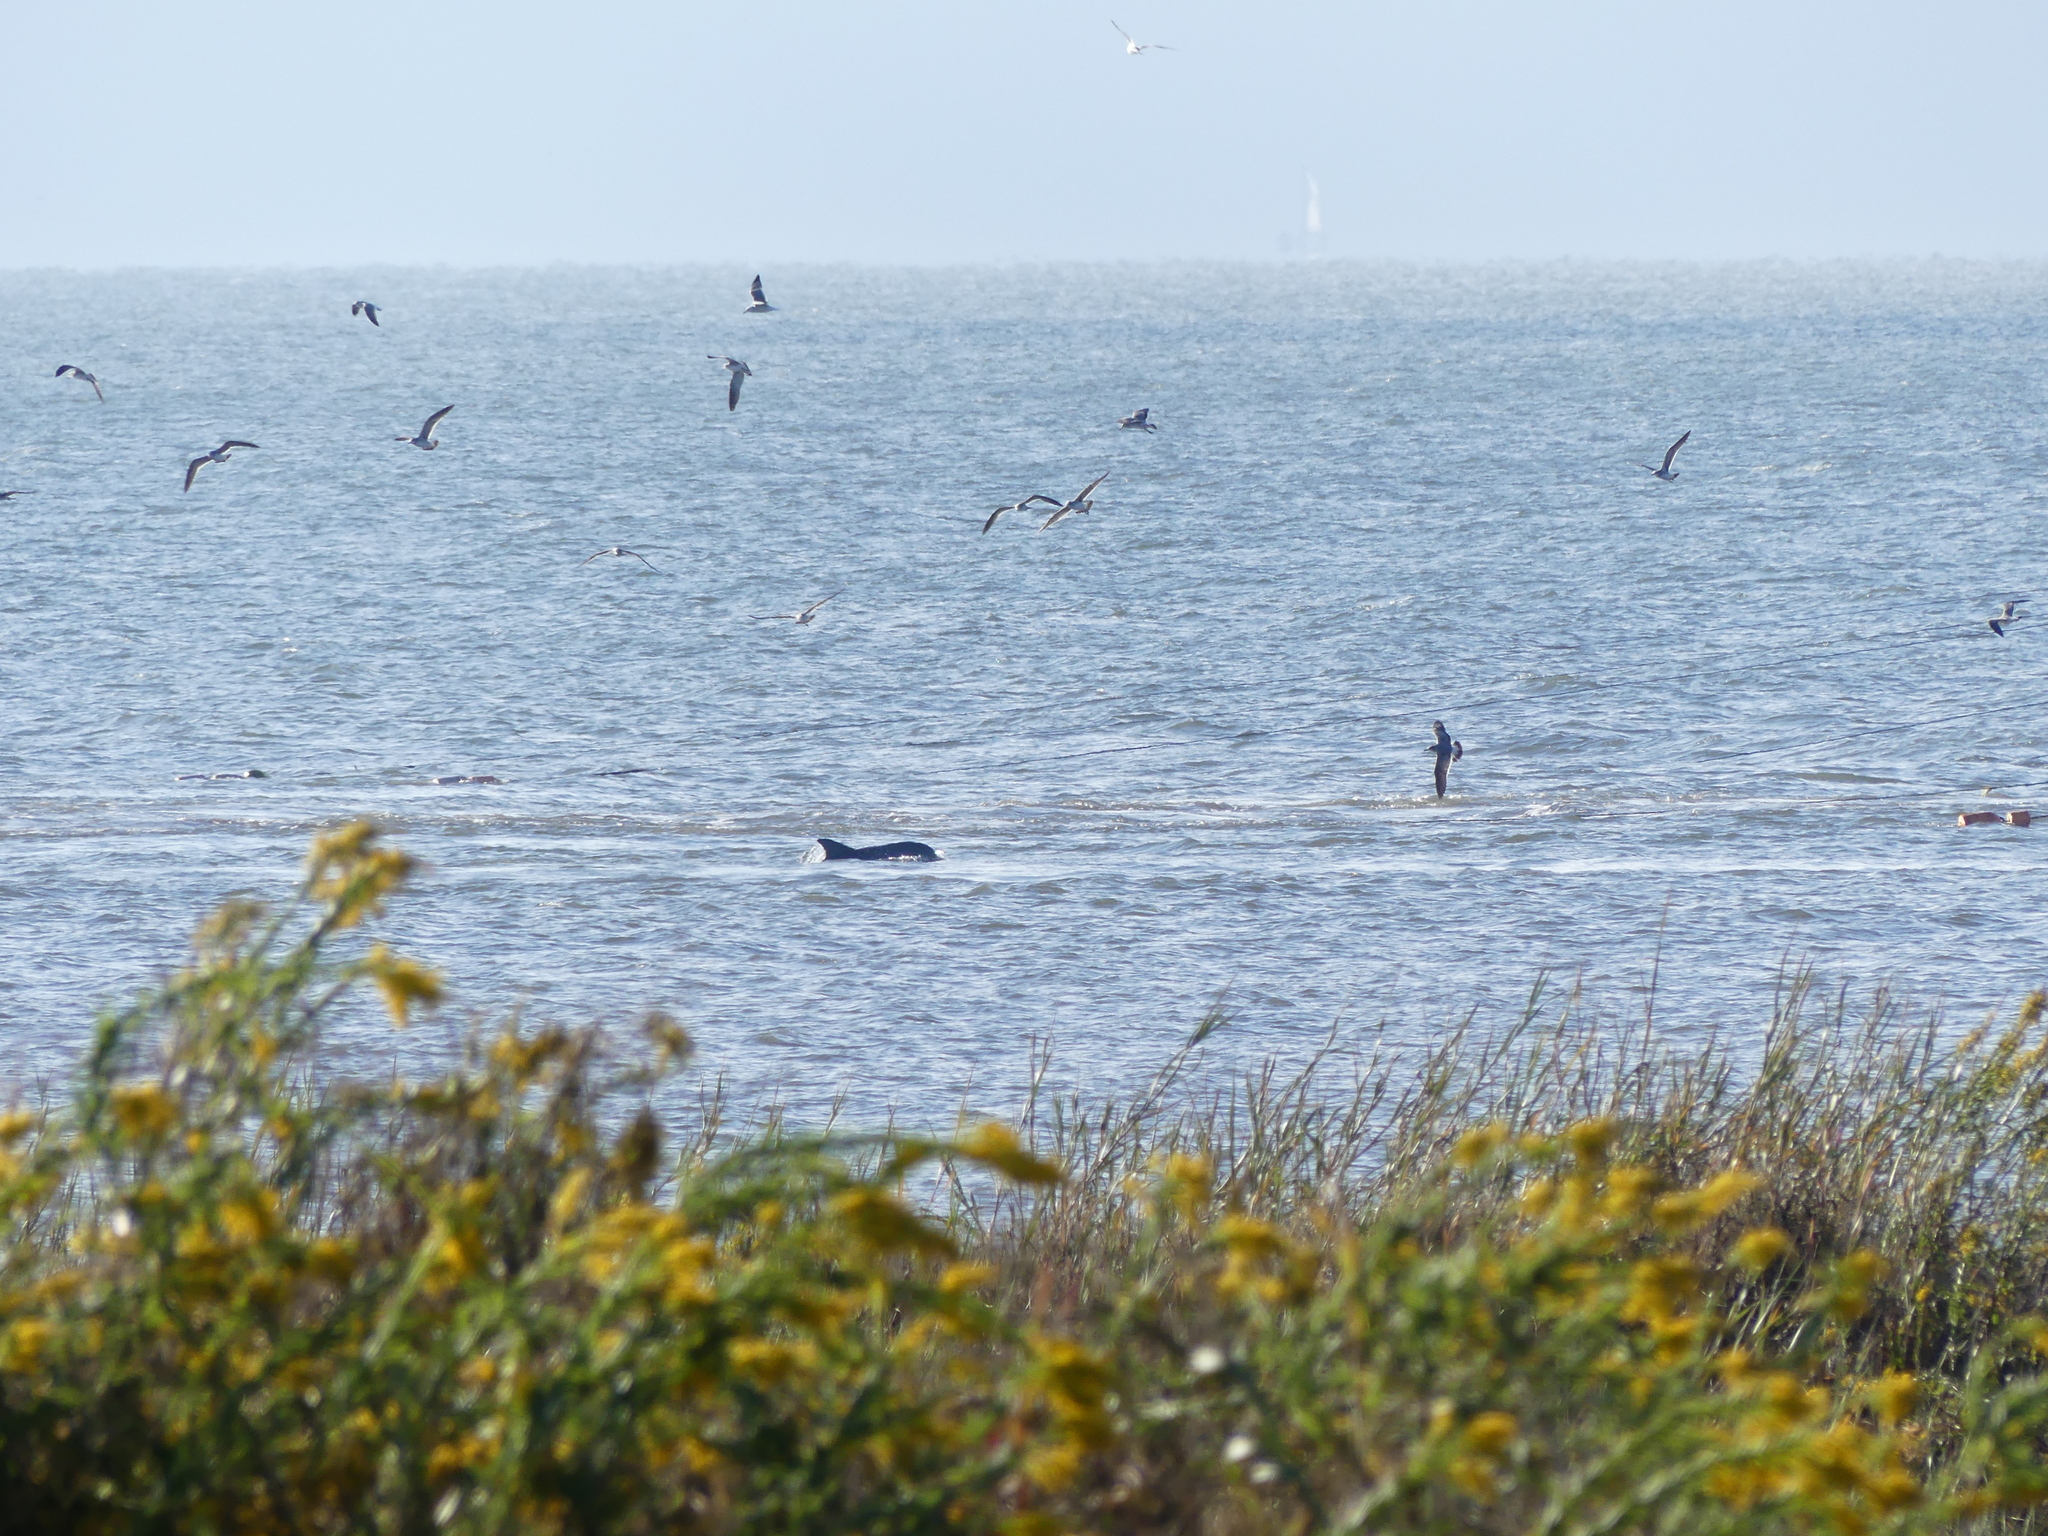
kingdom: Animalia
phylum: Chordata
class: Mammalia
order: Cetacea
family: Delphinidae
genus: Tursiops
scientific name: Tursiops truncatus
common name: Bottlenose dolphin
